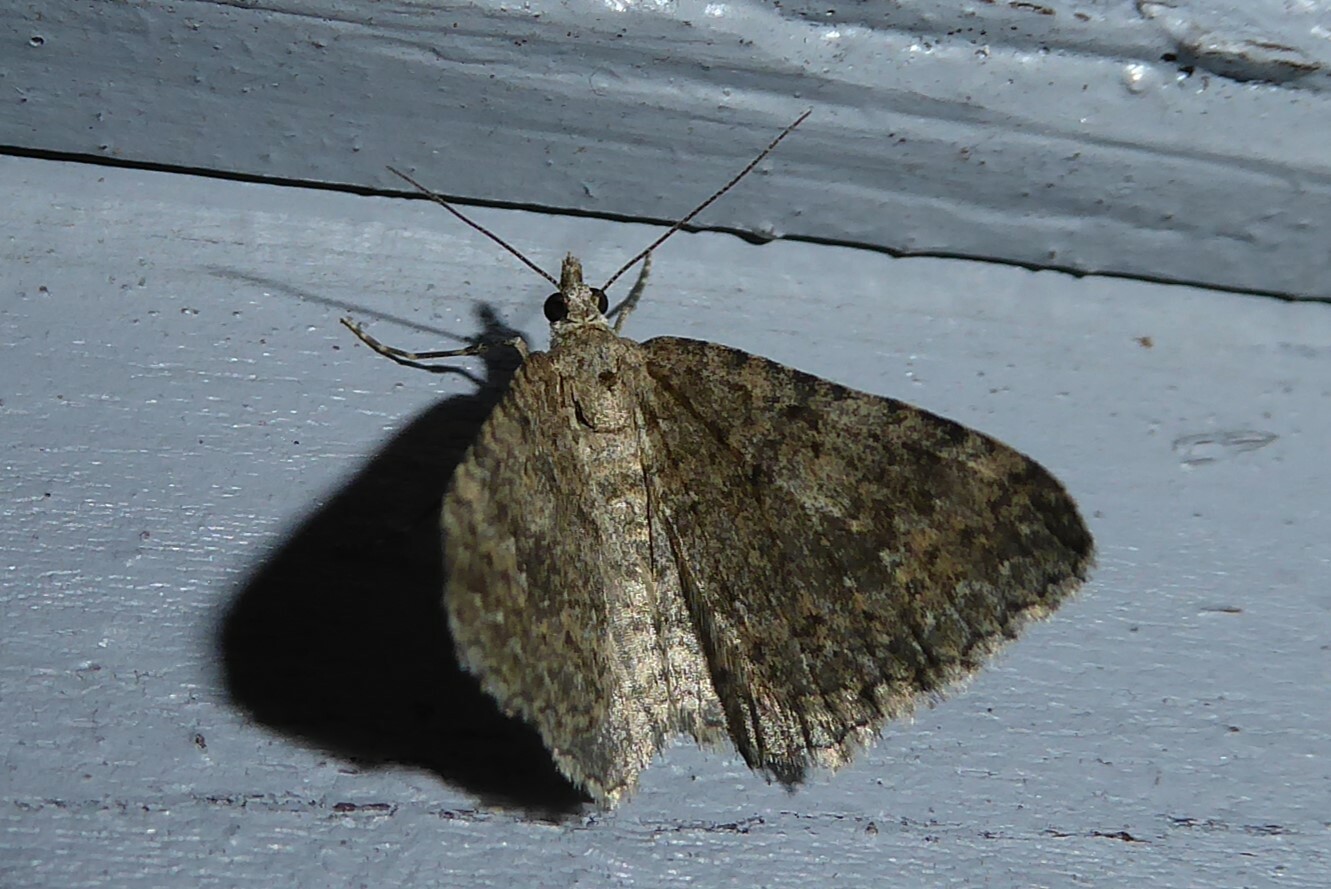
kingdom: Animalia
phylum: Arthropoda
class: Insecta
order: Lepidoptera
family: Geometridae
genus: Helastia
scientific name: Helastia corcularia
